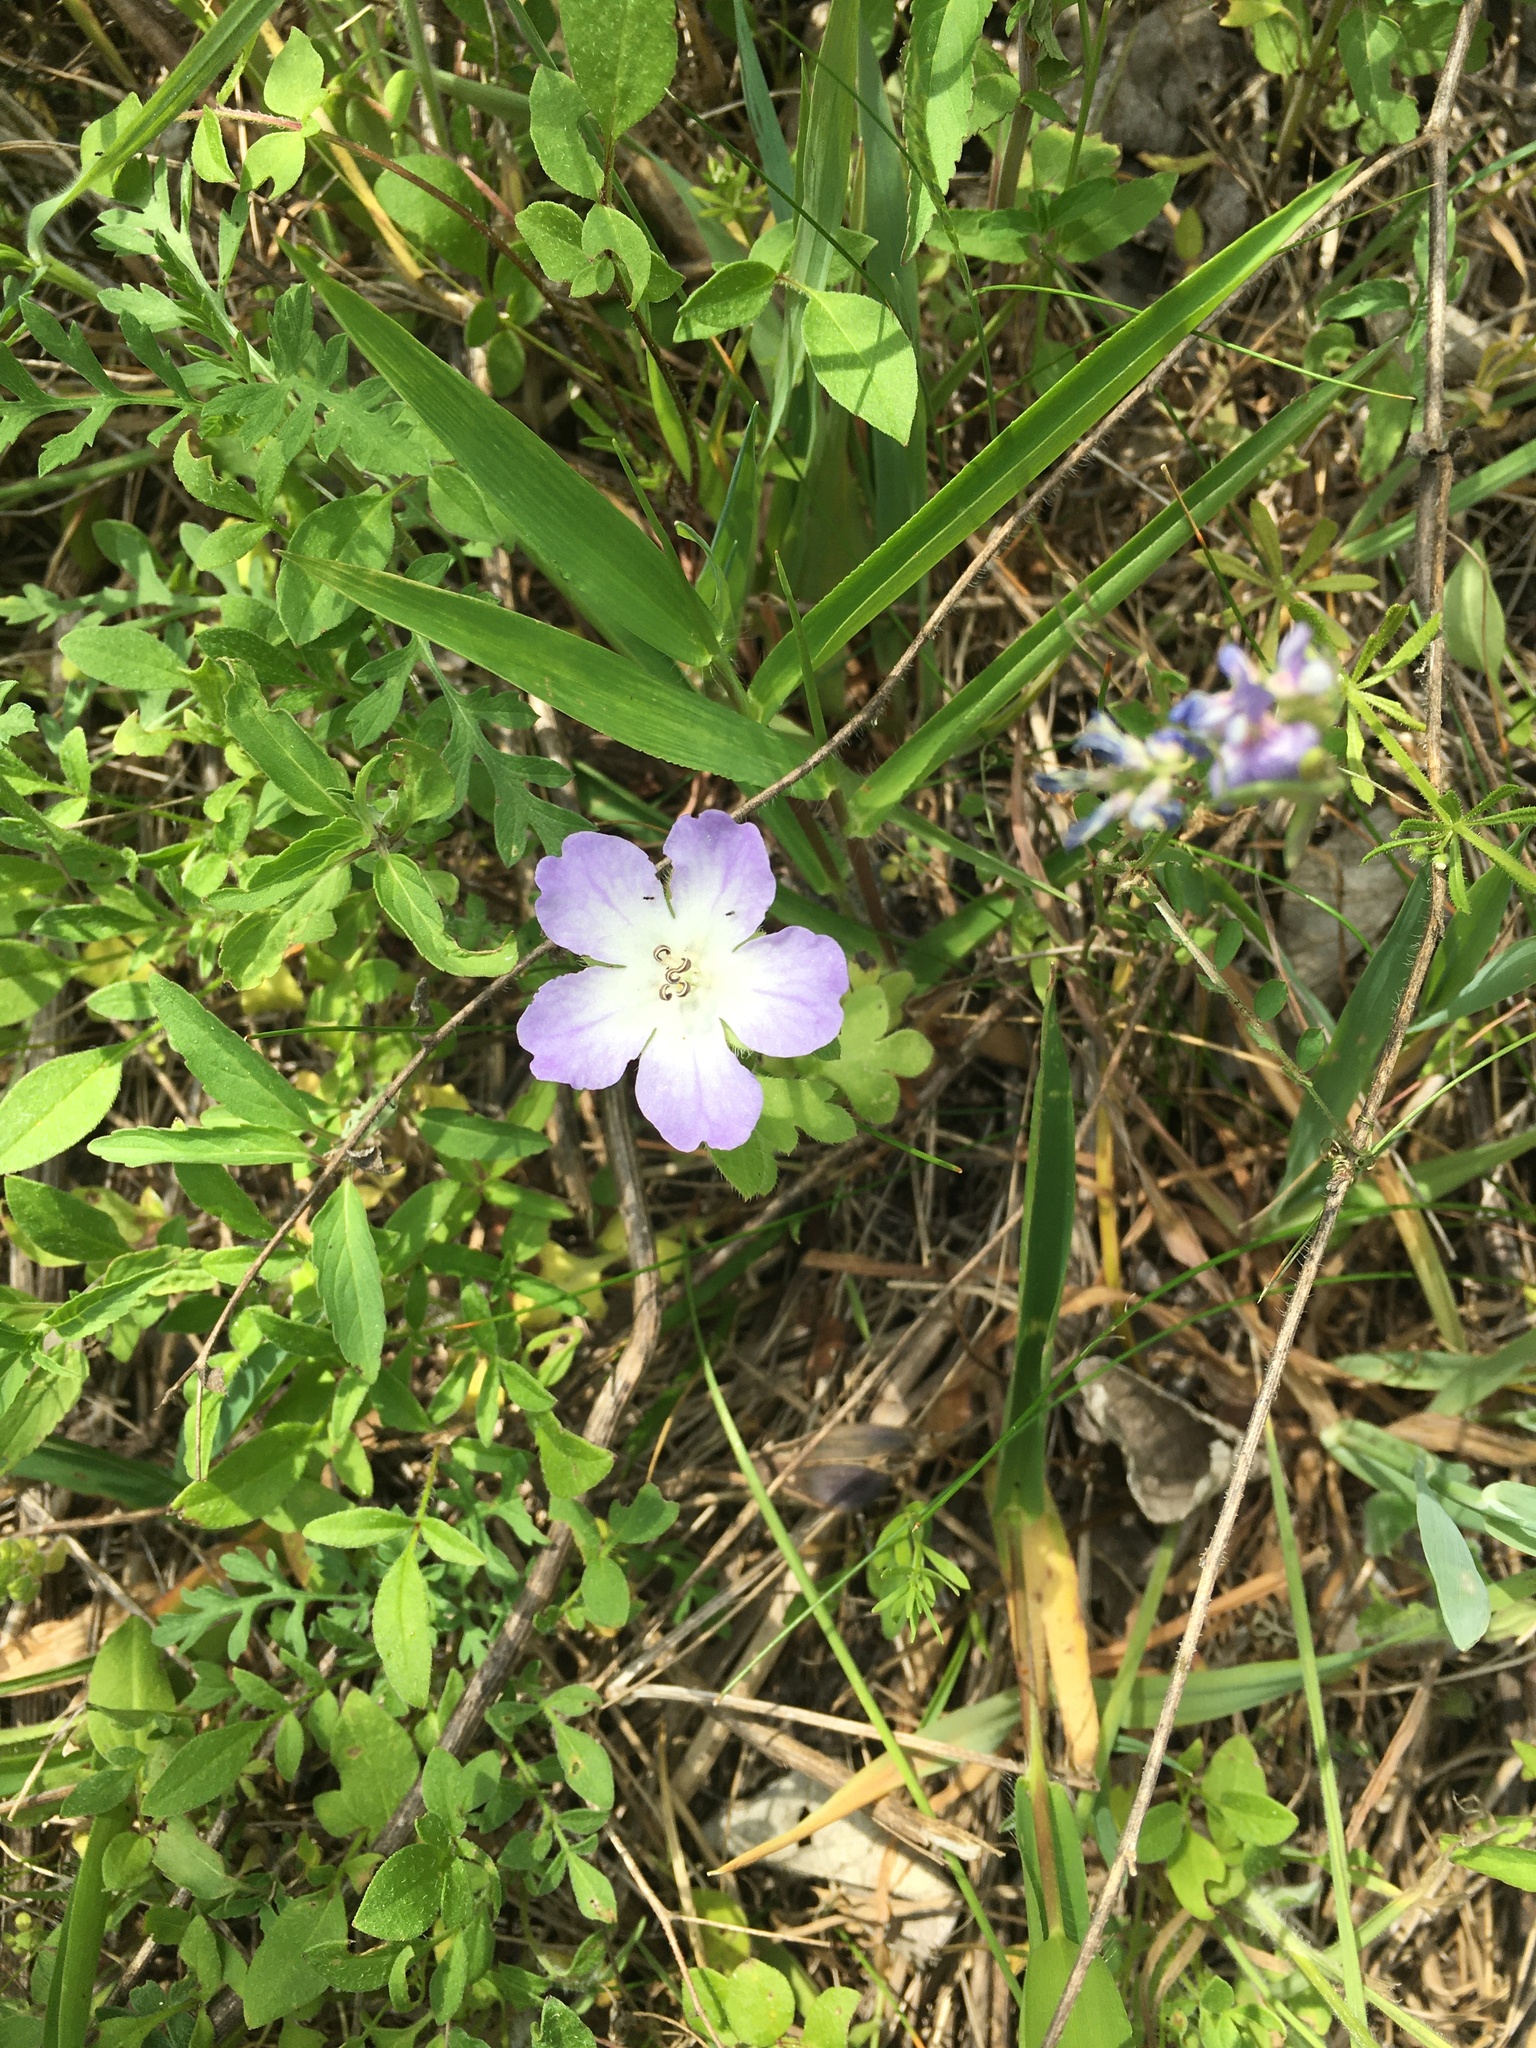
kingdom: Plantae
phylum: Tracheophyta
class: Magnoliopsida
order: Boraginales
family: Hydrophyllaceae
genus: Nemophila
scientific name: Nemophila phacelioides
